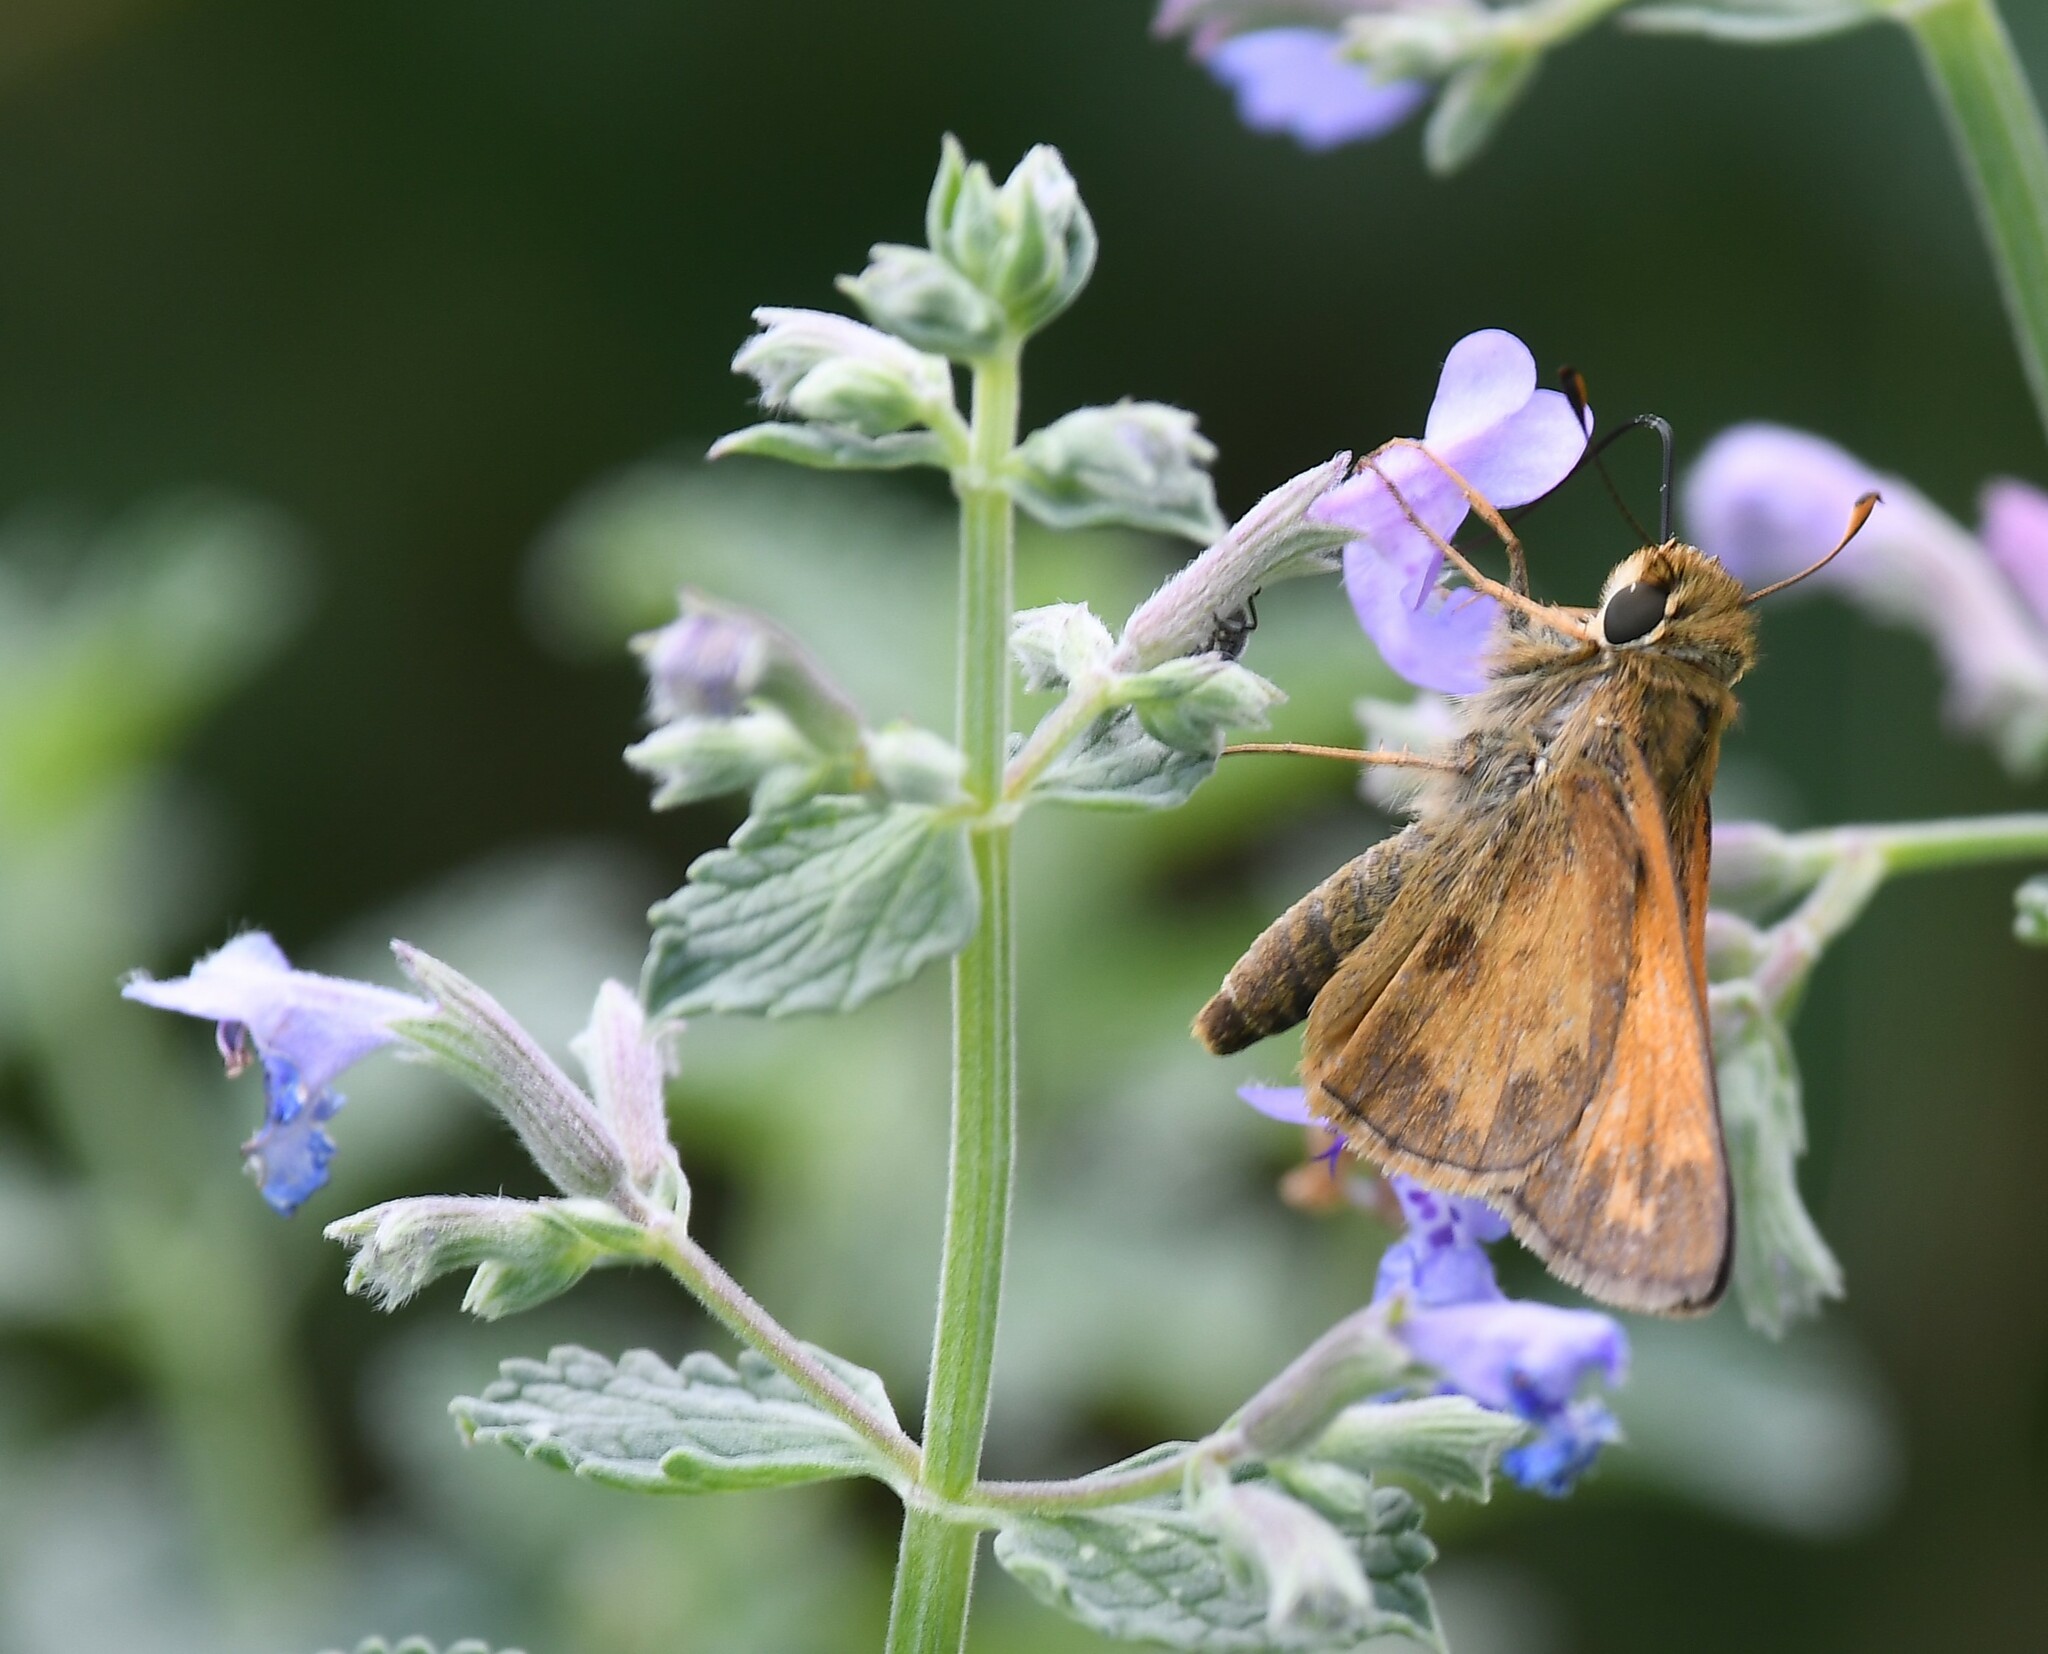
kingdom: Animalia
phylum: Arthropoda
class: Insecta
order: Lepidoptera
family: Hesperiidae
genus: Atalopedes
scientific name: Atalopedes
